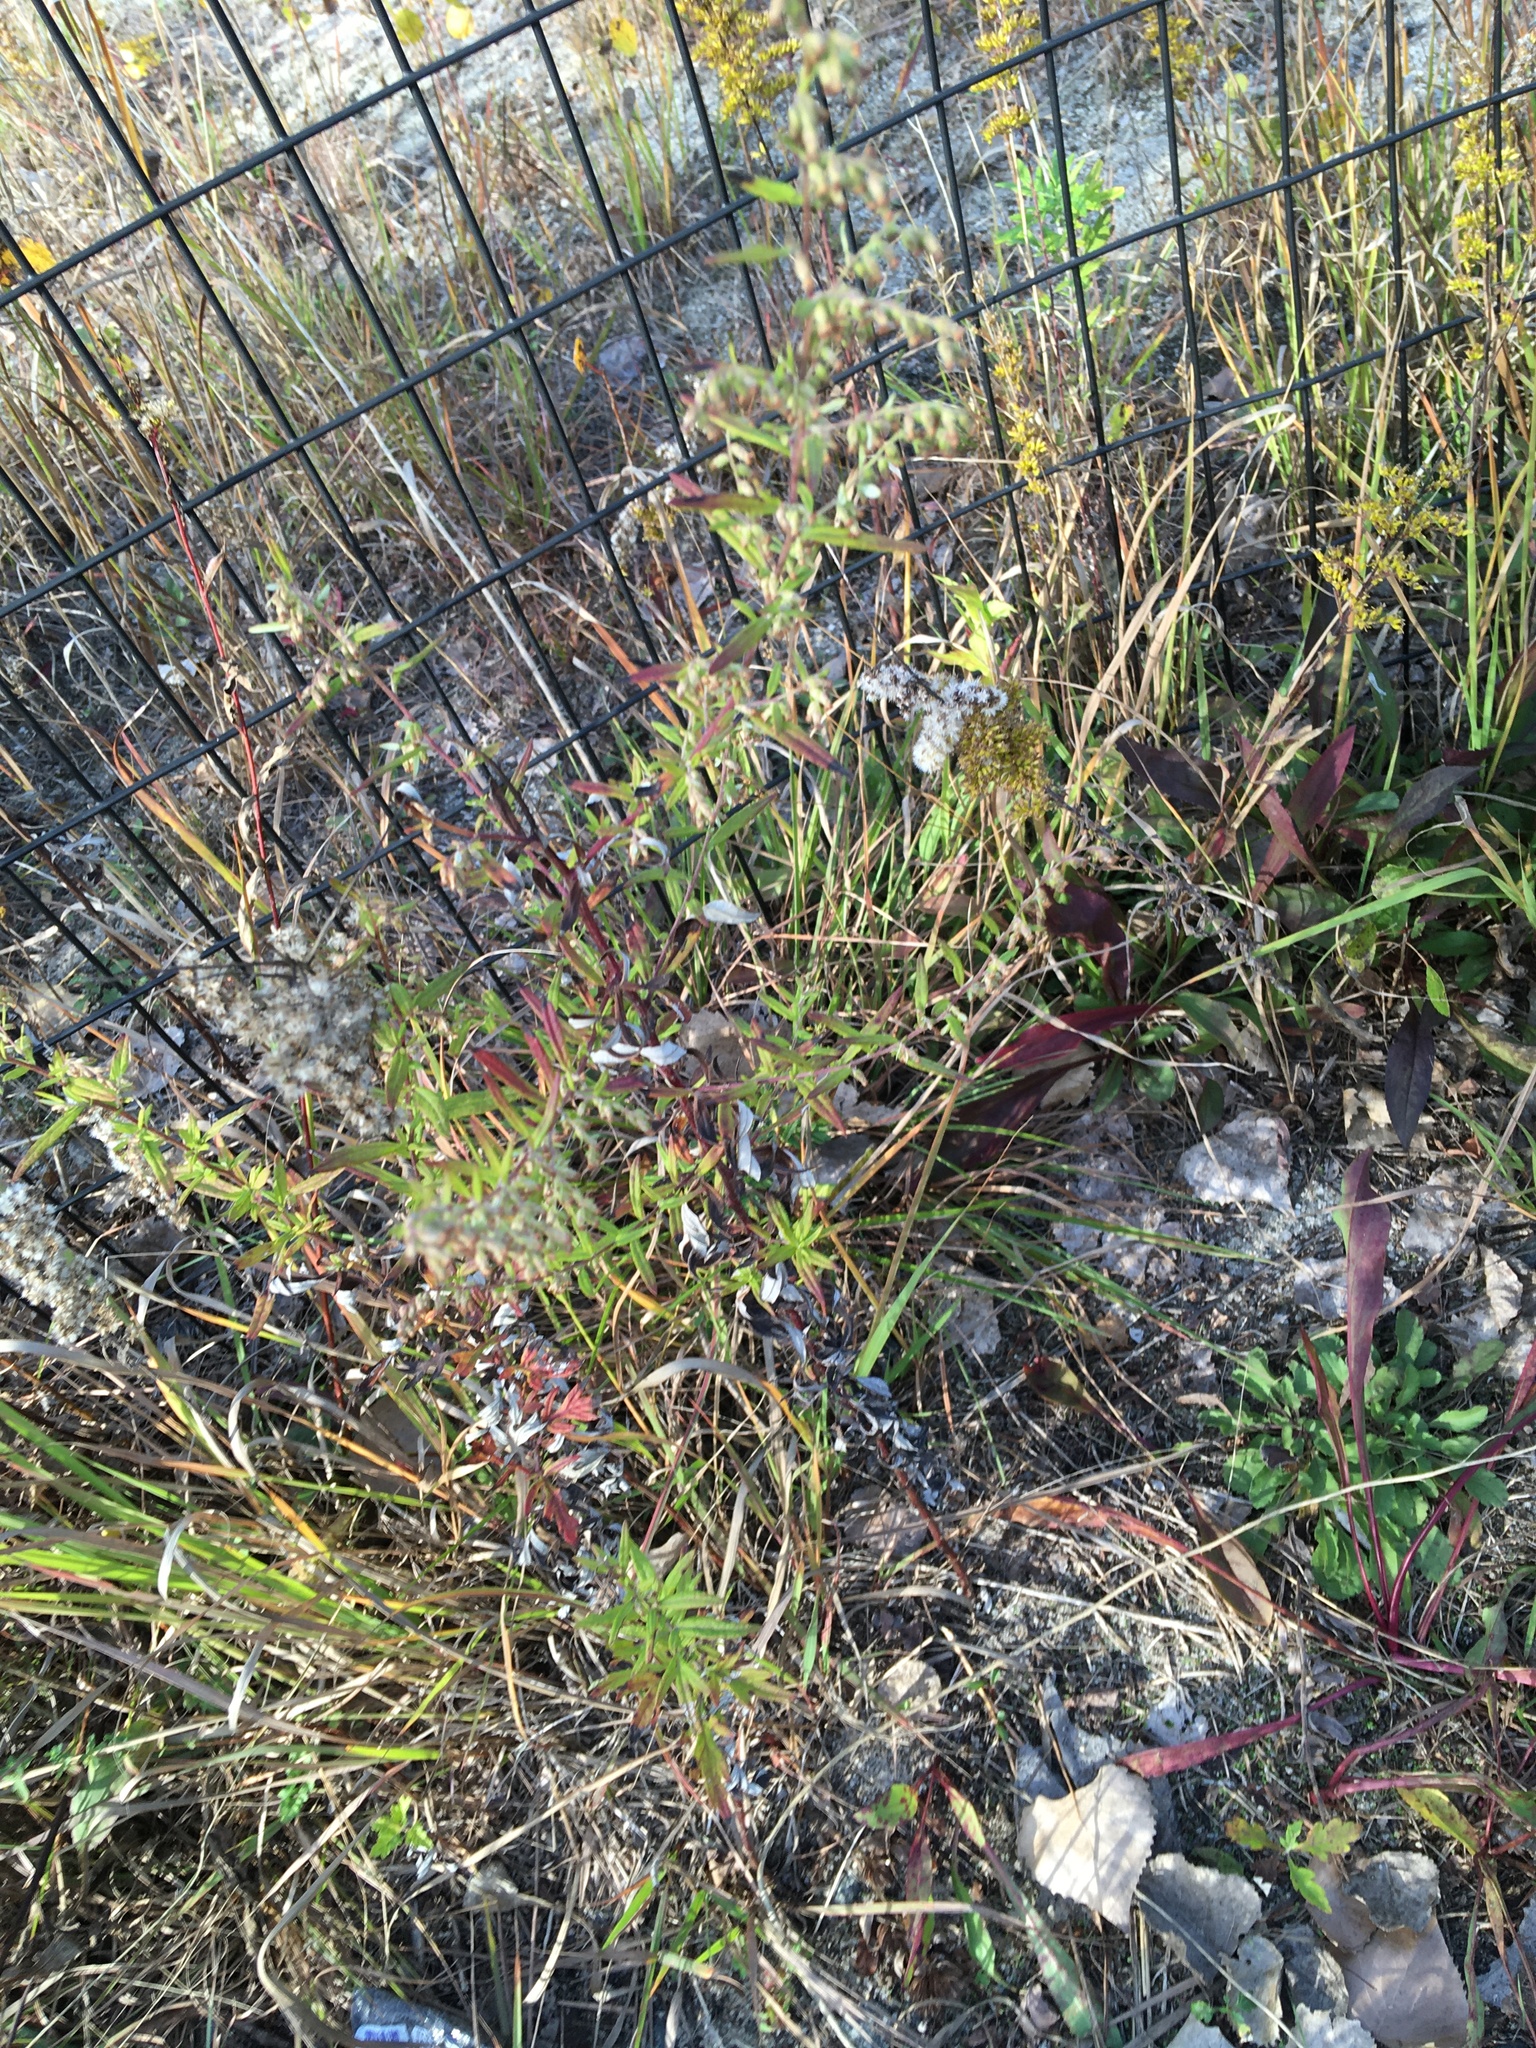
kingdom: Plantae
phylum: Tracheophyta
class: Magnoliopsida
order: Asterales
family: Asteraceae
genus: Artemisia
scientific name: Artemisia vulgaris
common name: Mugwort
